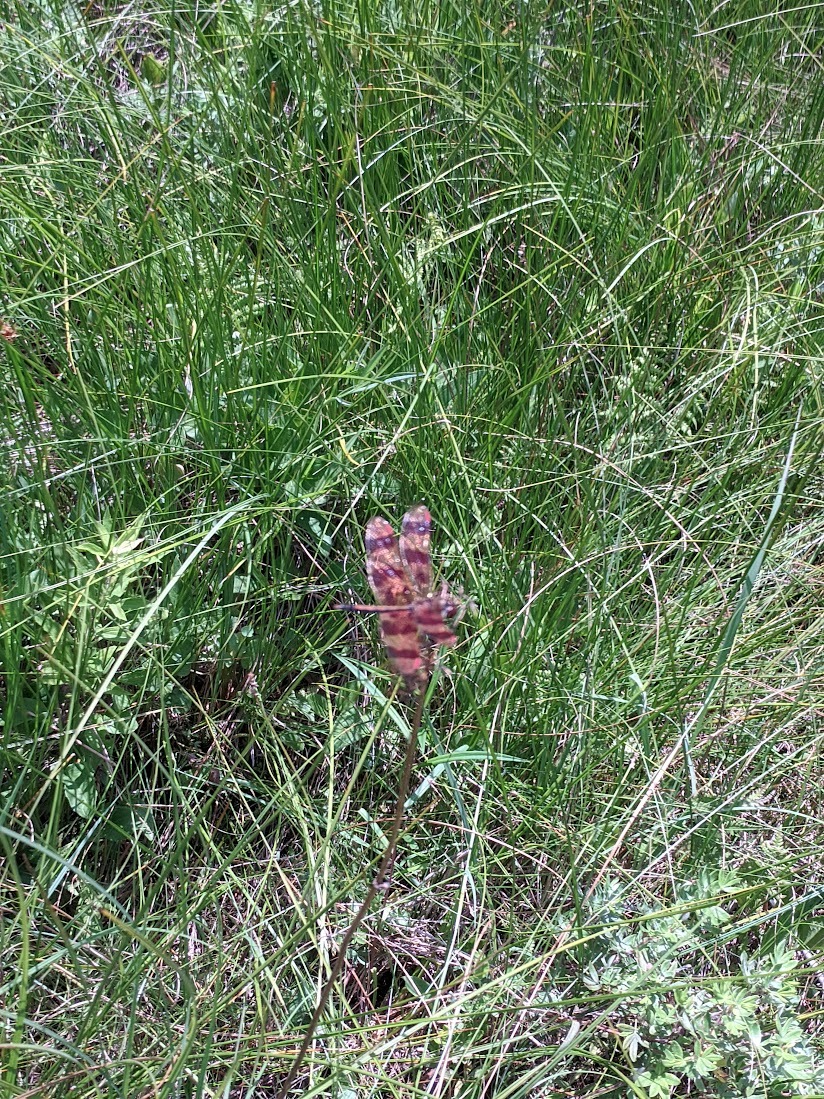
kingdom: Animalia
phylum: Arthropoda
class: Insecta
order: Odonata
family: Libellulidae
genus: Celithemis
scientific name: Celithemis eponina
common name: Halloween pennant
